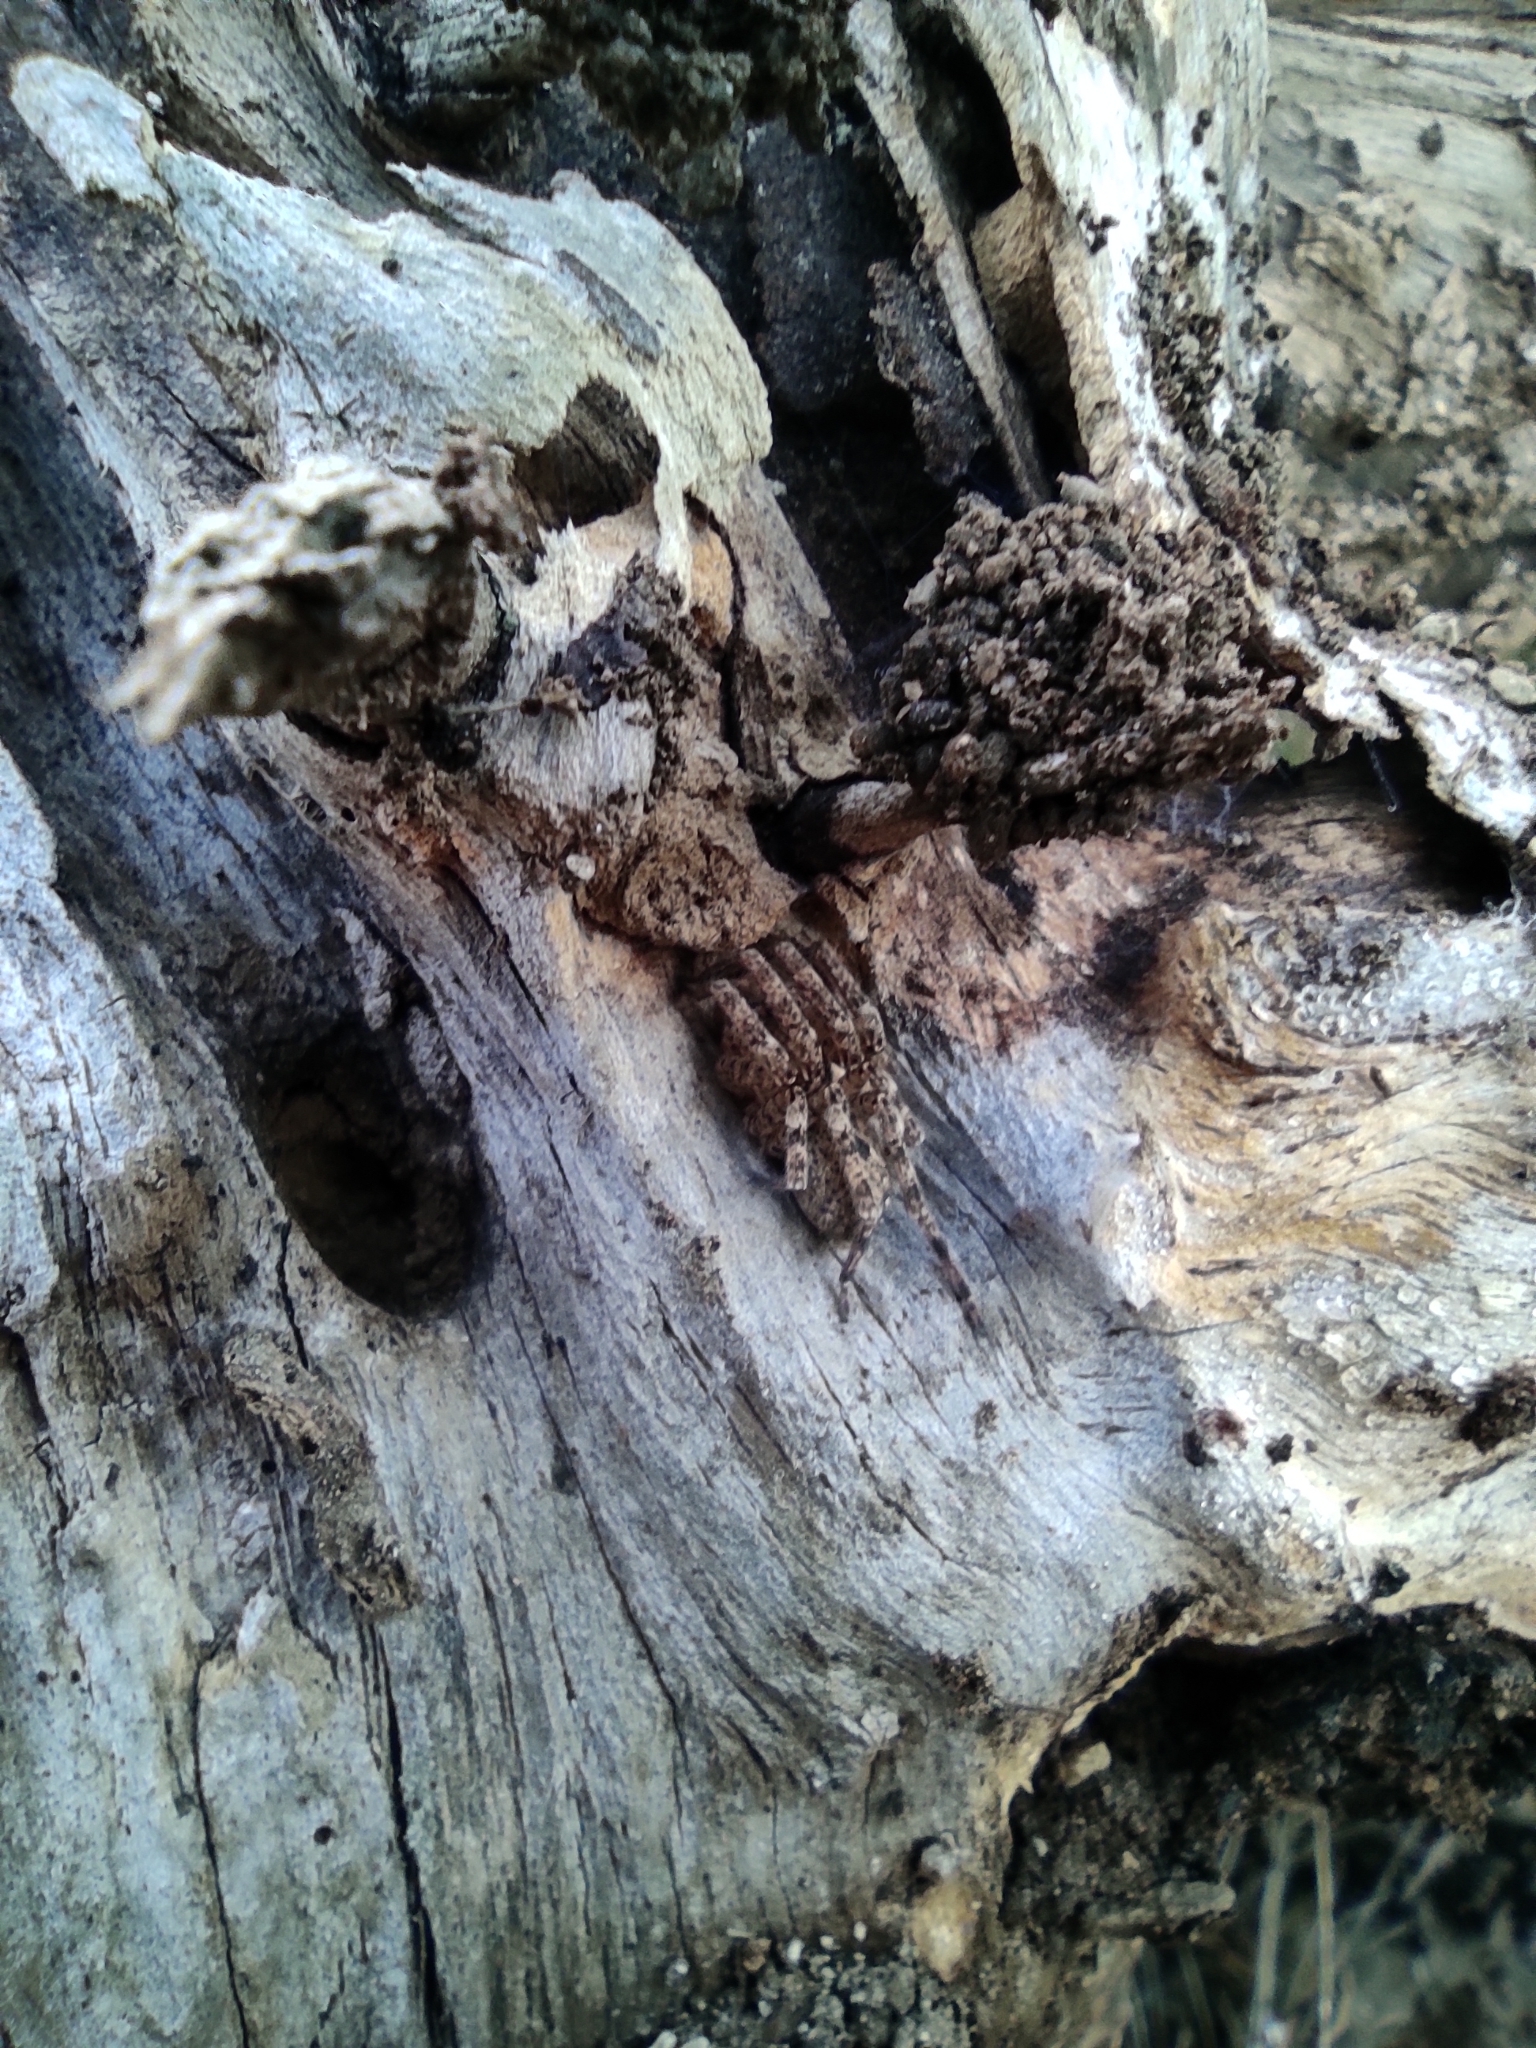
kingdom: Animalia
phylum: Arthropoda
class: Arachnida
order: Araneae
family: Zoropsidae
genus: Zoropsis
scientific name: Zoropsis spinimana
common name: Zoropsid spider
